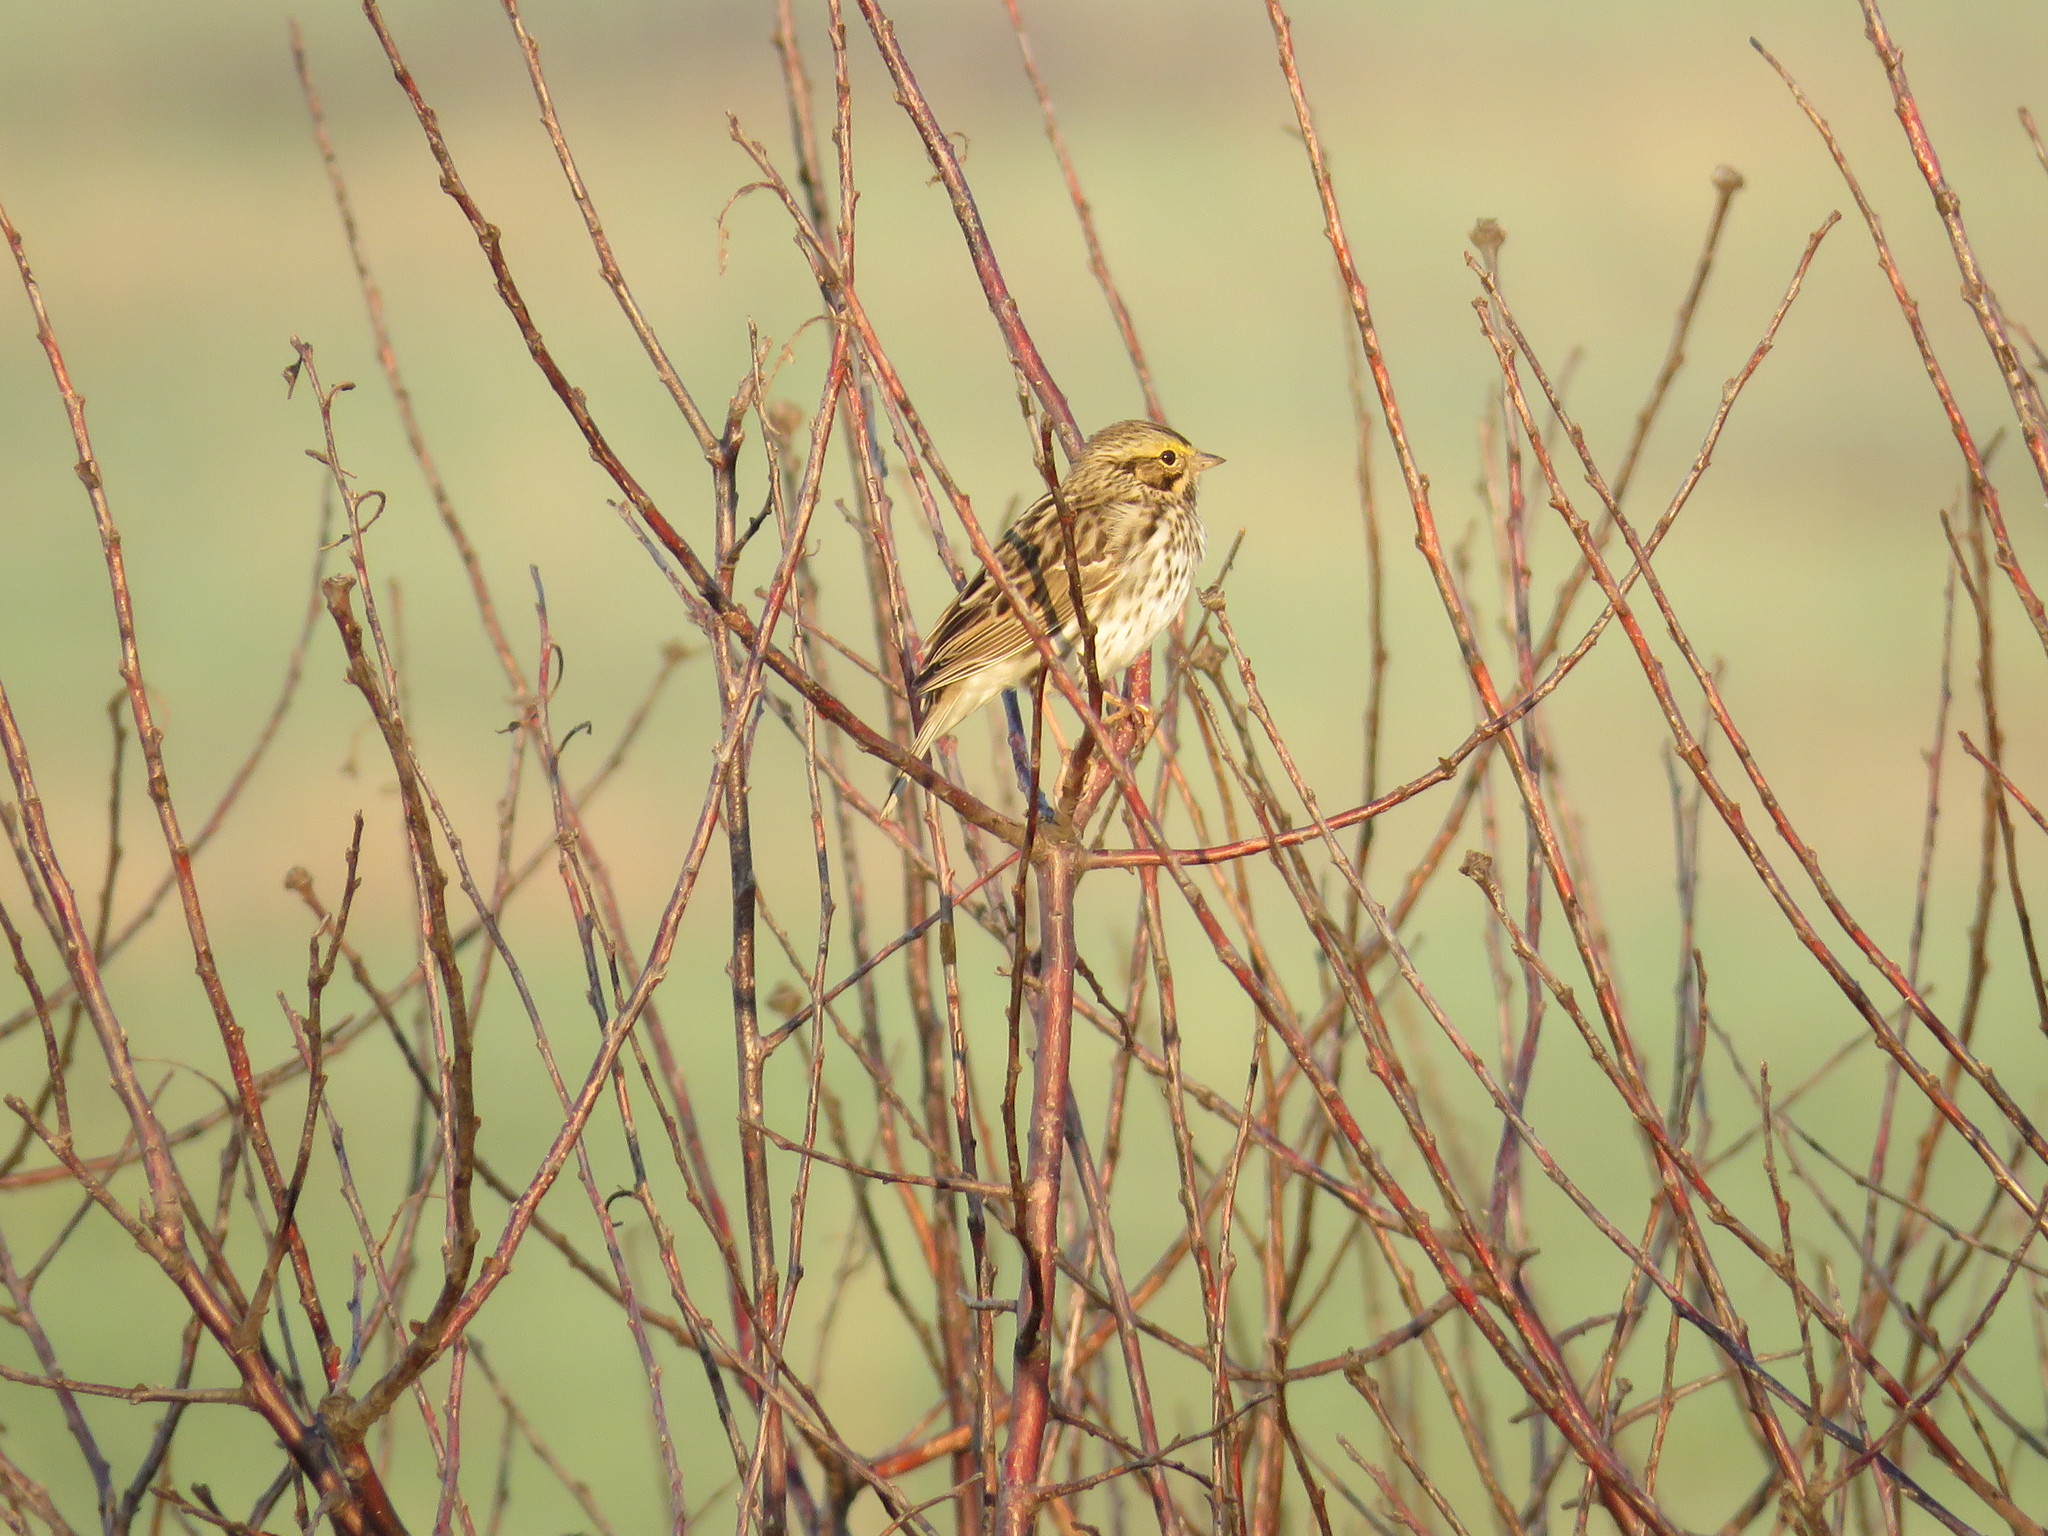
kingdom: Animalia
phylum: Chordata
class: Aves
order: Passeriformes
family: Passerellidae
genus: Passerculus
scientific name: Passerculus sandwichensis
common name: Savannah sparrow
